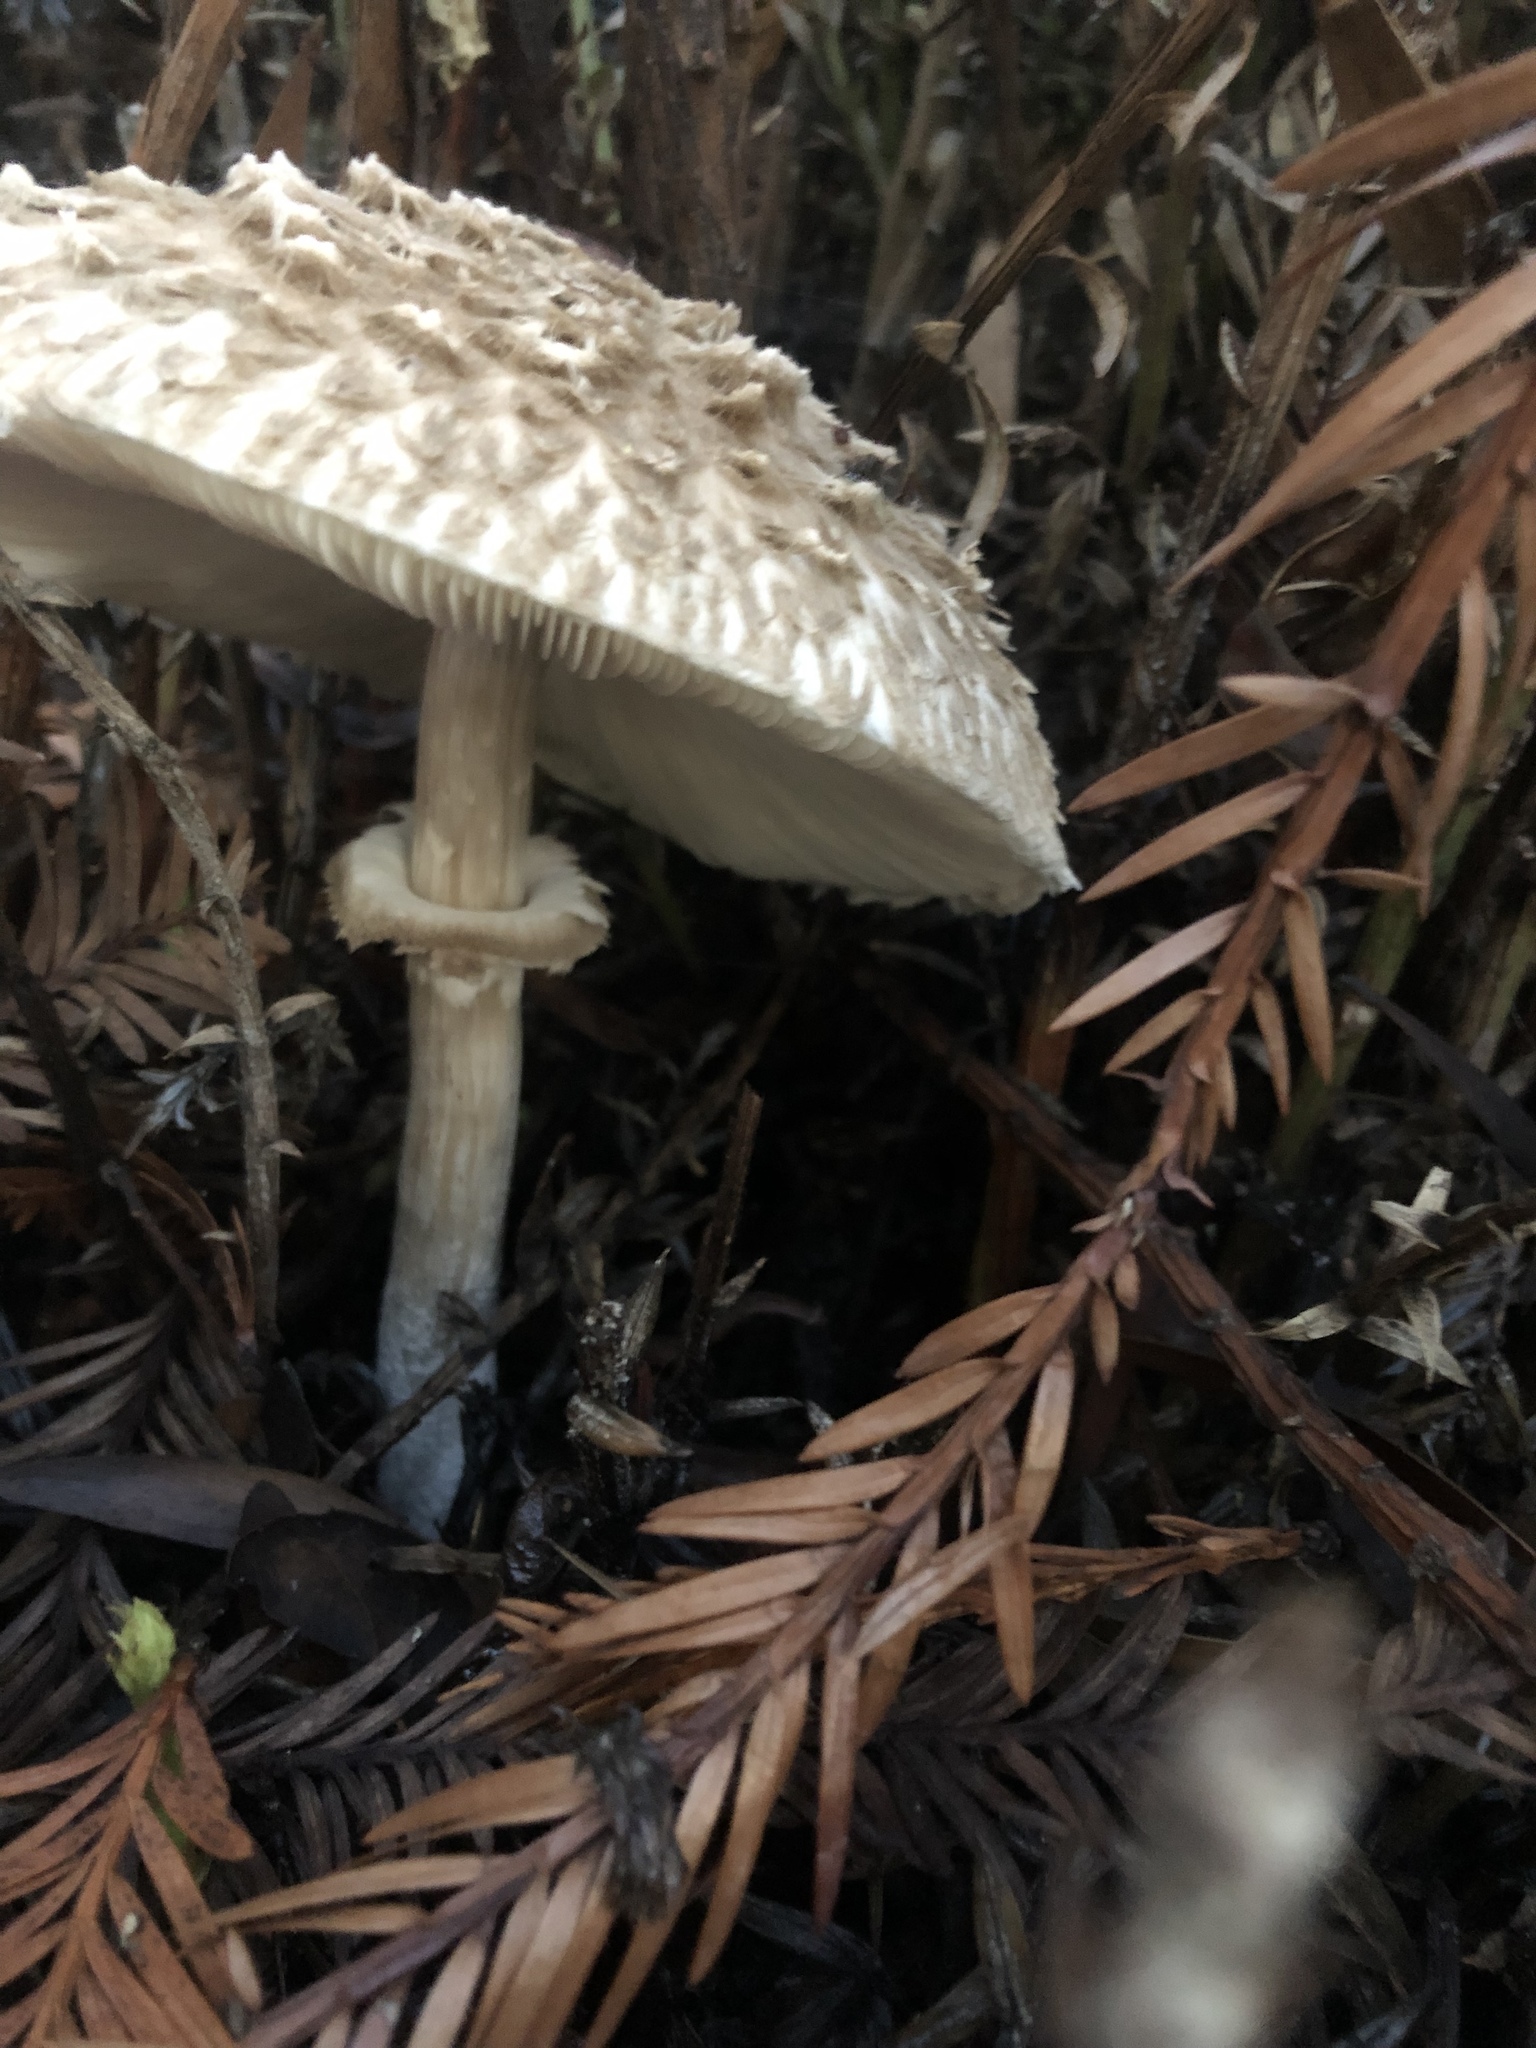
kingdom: Fungi
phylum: Basidiomycota
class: Agaricomycetes
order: Agaricales
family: Agaricaceae
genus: Chlorophyllum
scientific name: Chlorophyllum olivieri
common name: Conifer parasol
